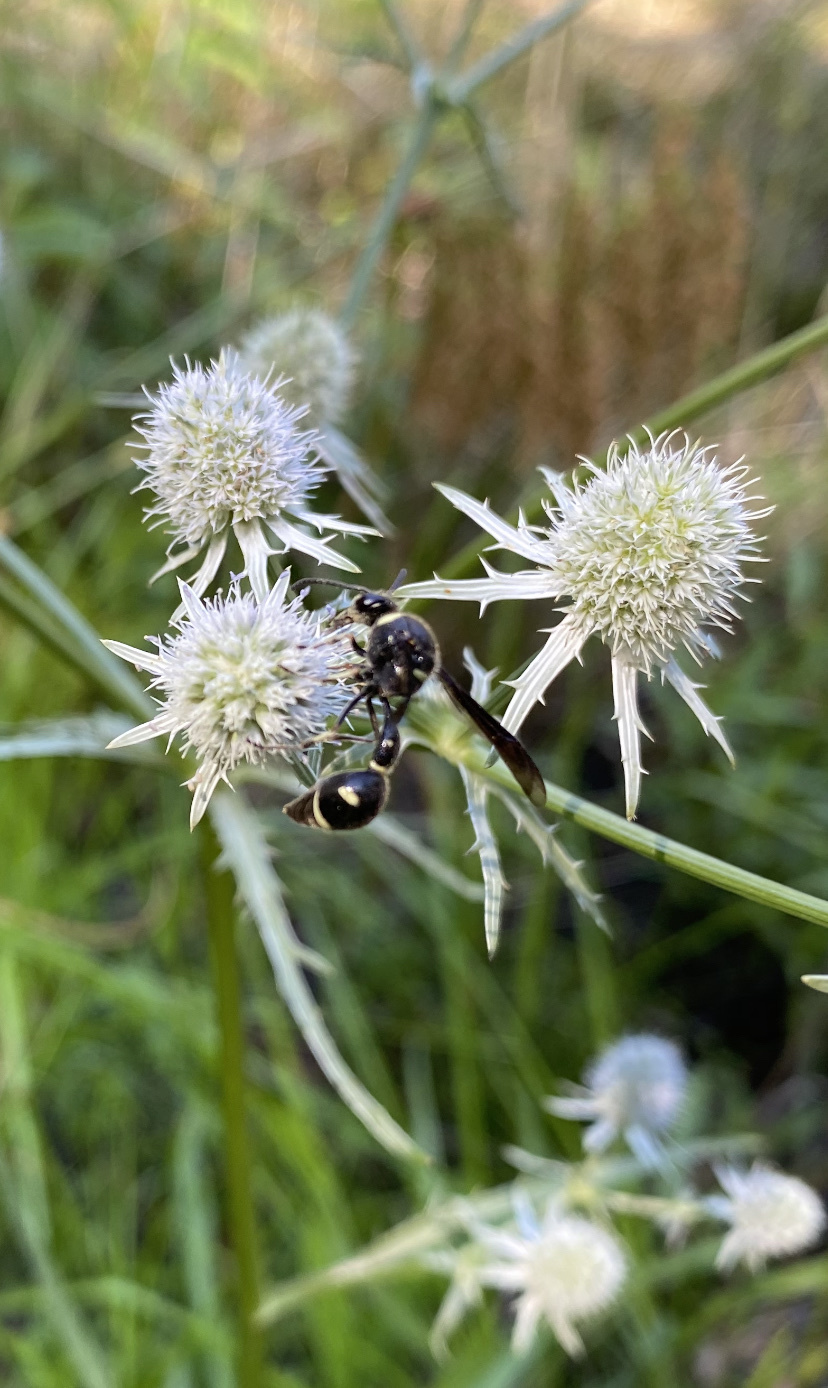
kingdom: Animalia
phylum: Arthropoda
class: Insecta
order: Hymenoptera
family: Vespidae
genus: Eumenes
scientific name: Eumenes fraternus
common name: Fraternal potter wasp
